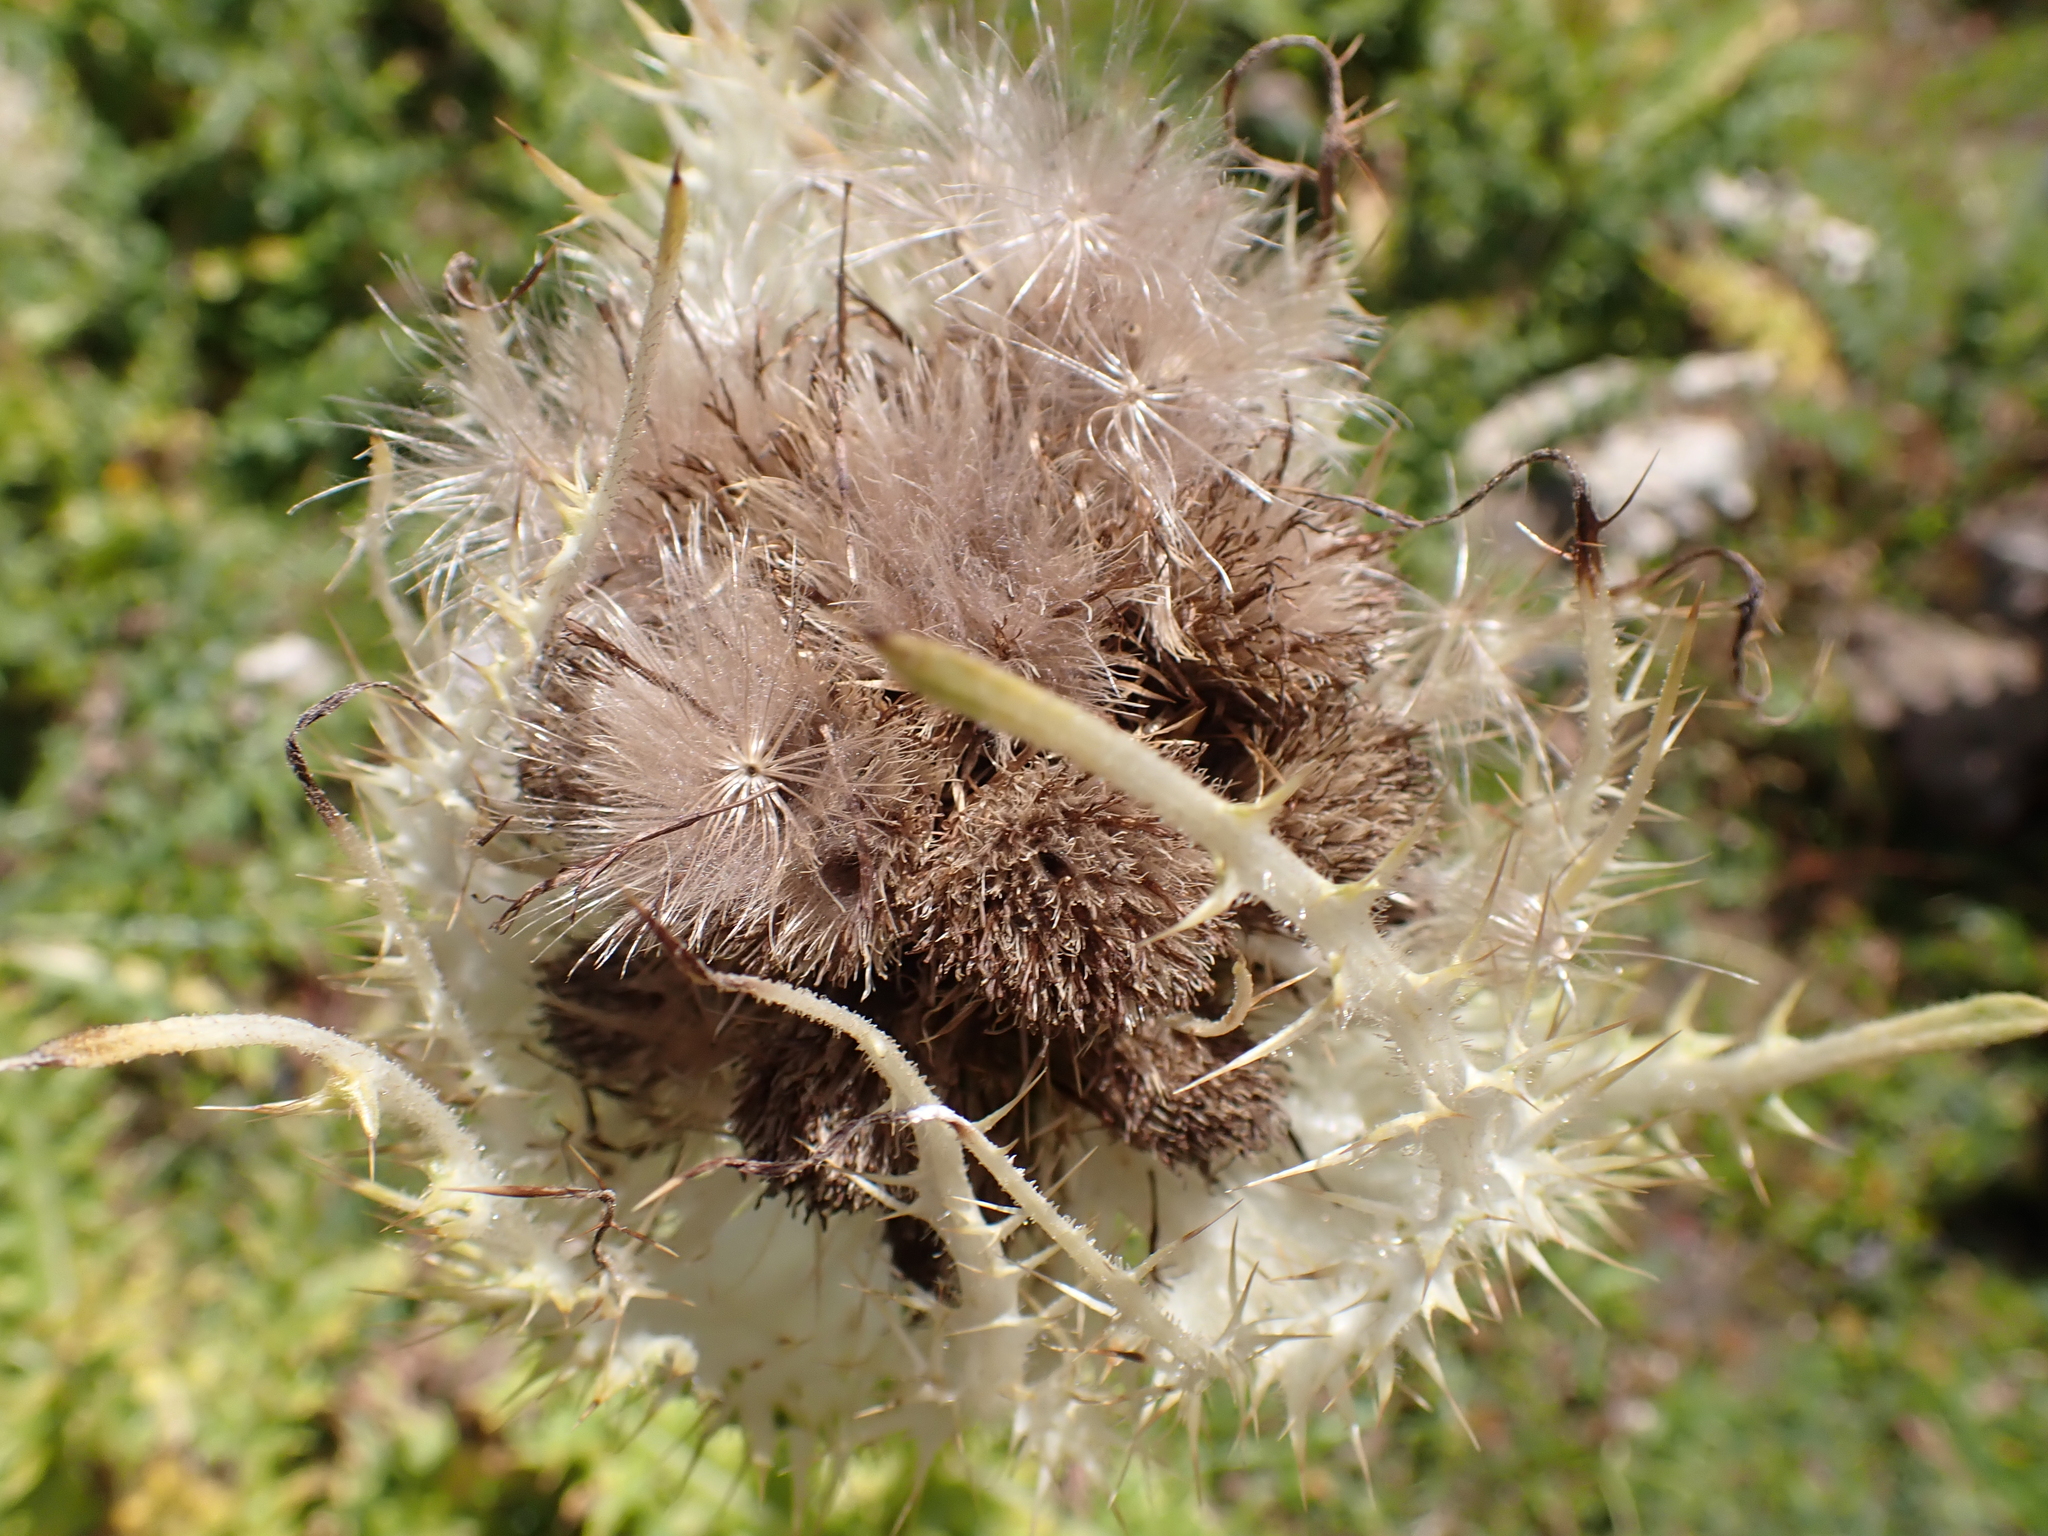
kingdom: Plantae
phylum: Tracheophyta
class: Magnoliopsida
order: Asterales
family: Asteraceae
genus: Cirsium
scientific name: Cirsium spinosissimum
